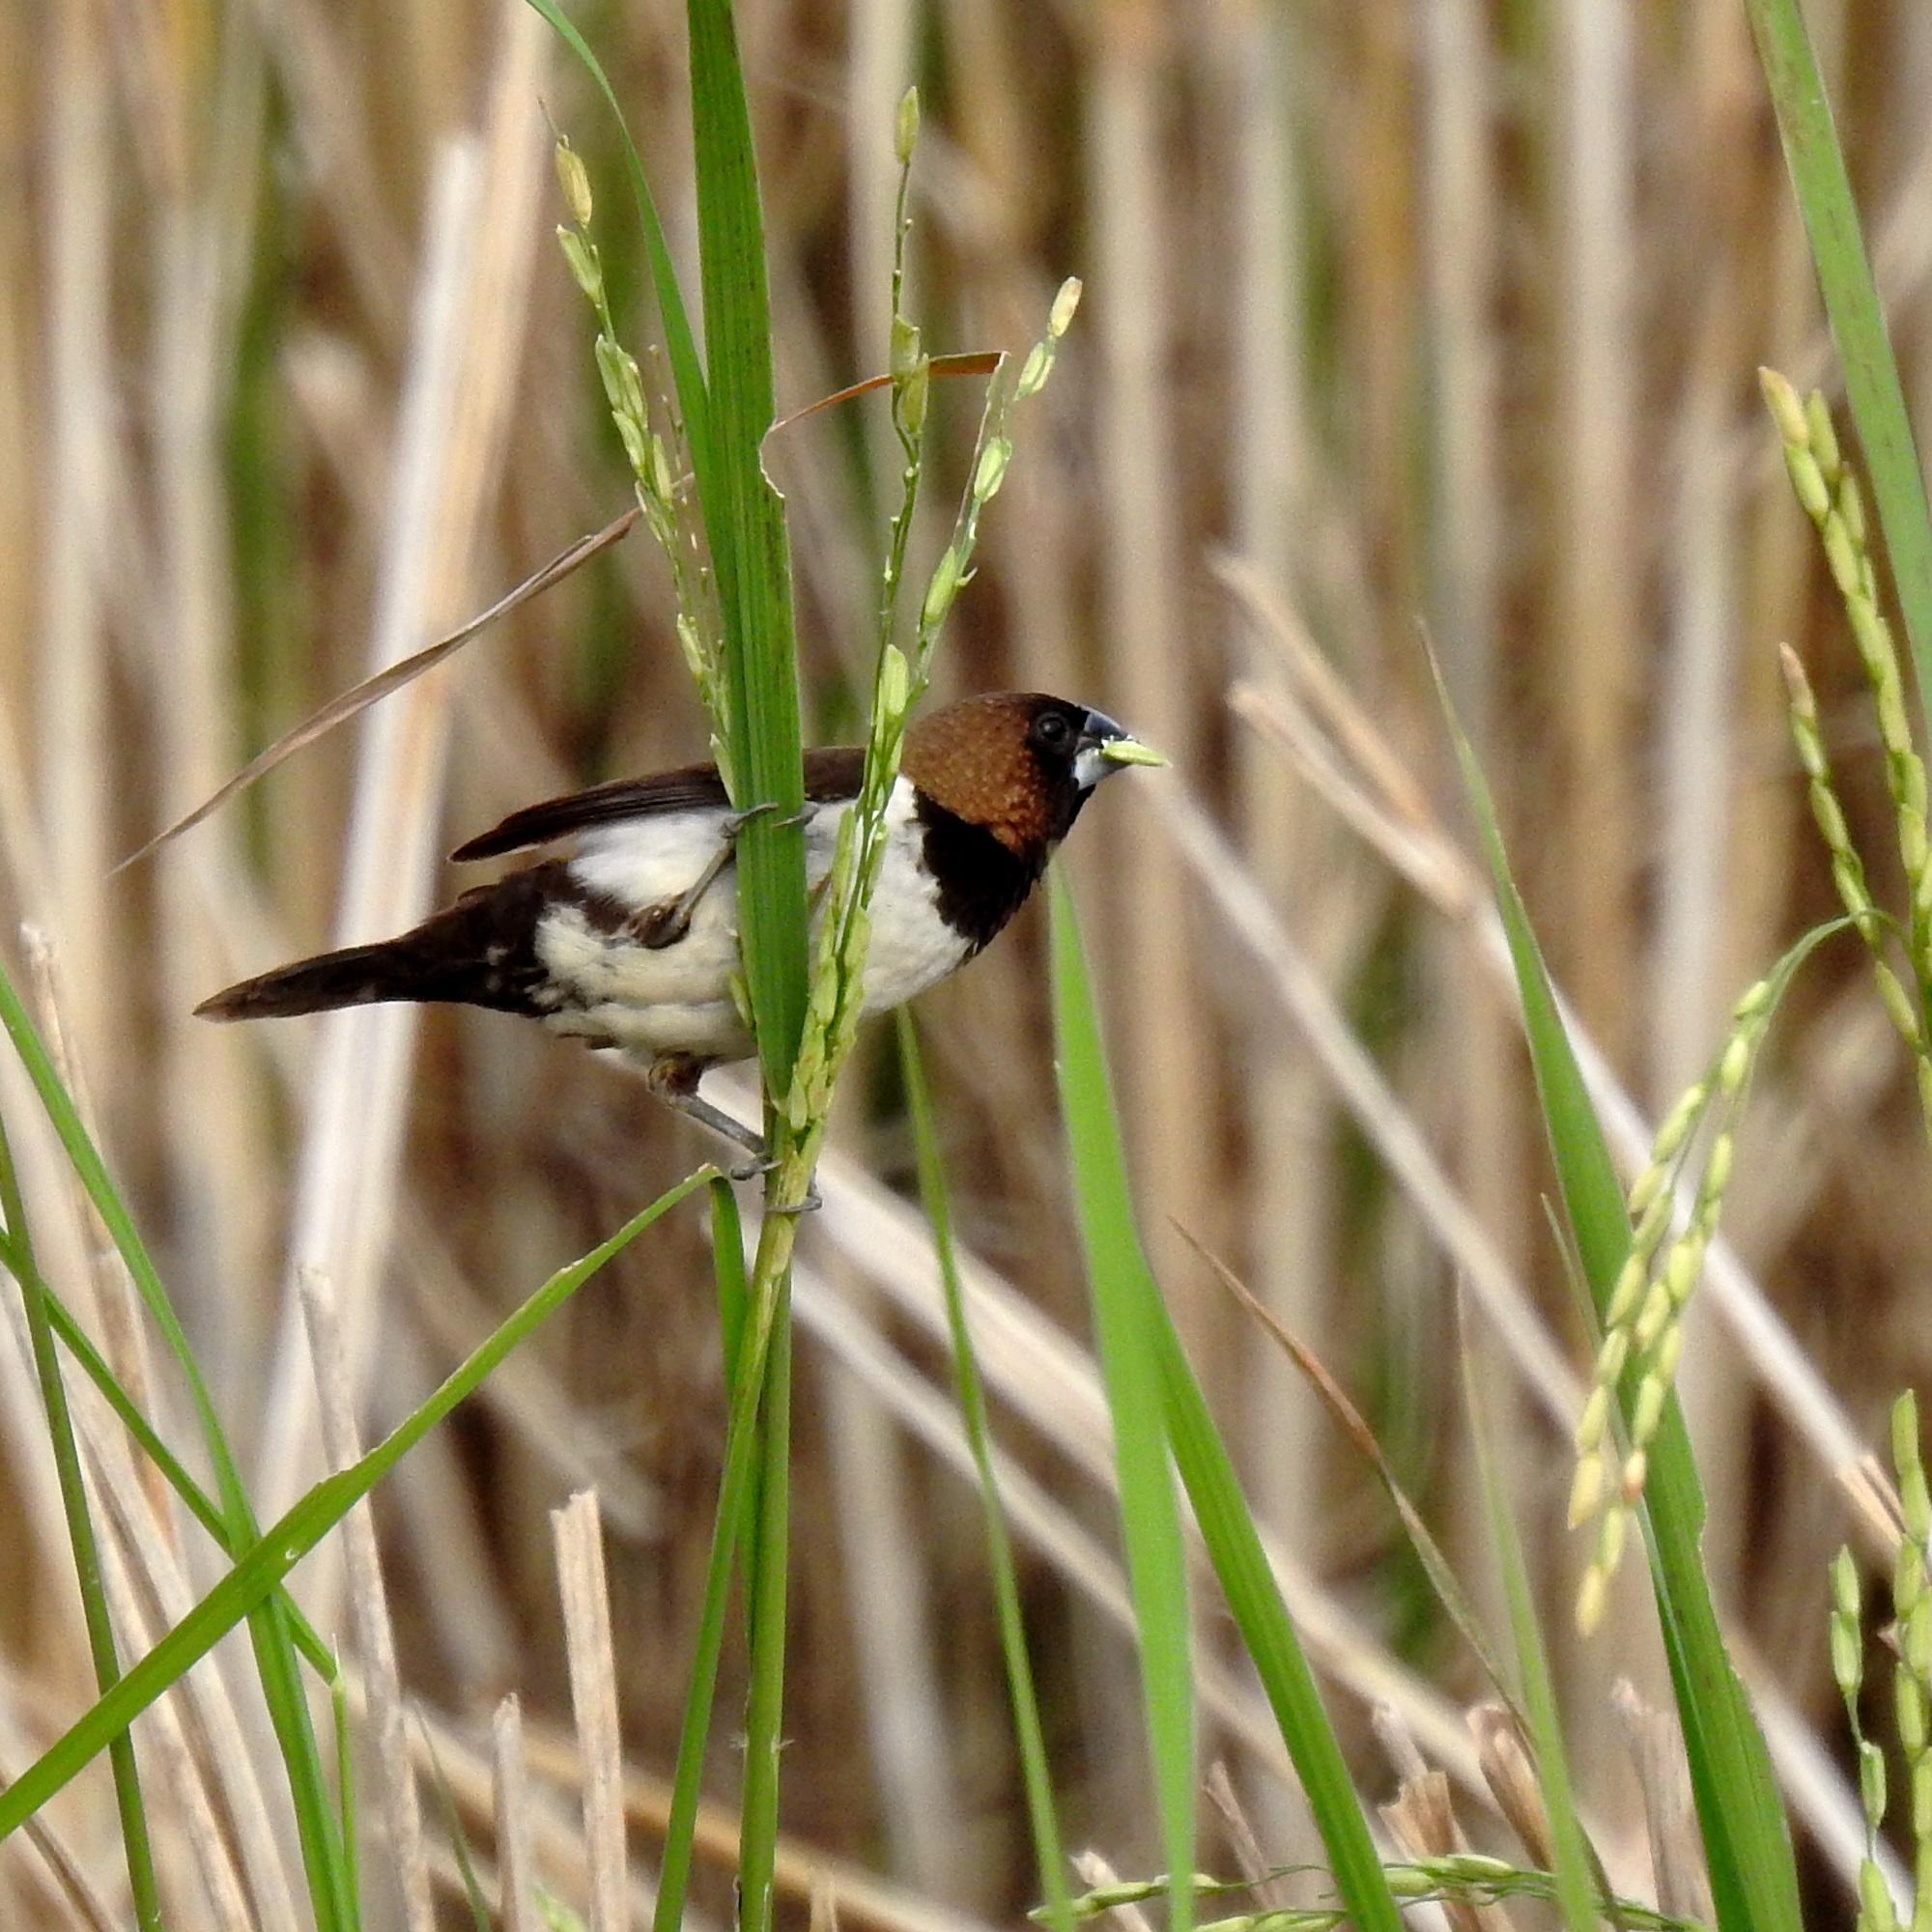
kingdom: Animalia
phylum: Chordata
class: Aves
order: Passeriformes
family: Estrildidae
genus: Lonchura
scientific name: Lonchura leucogastroides
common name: Javan munia
